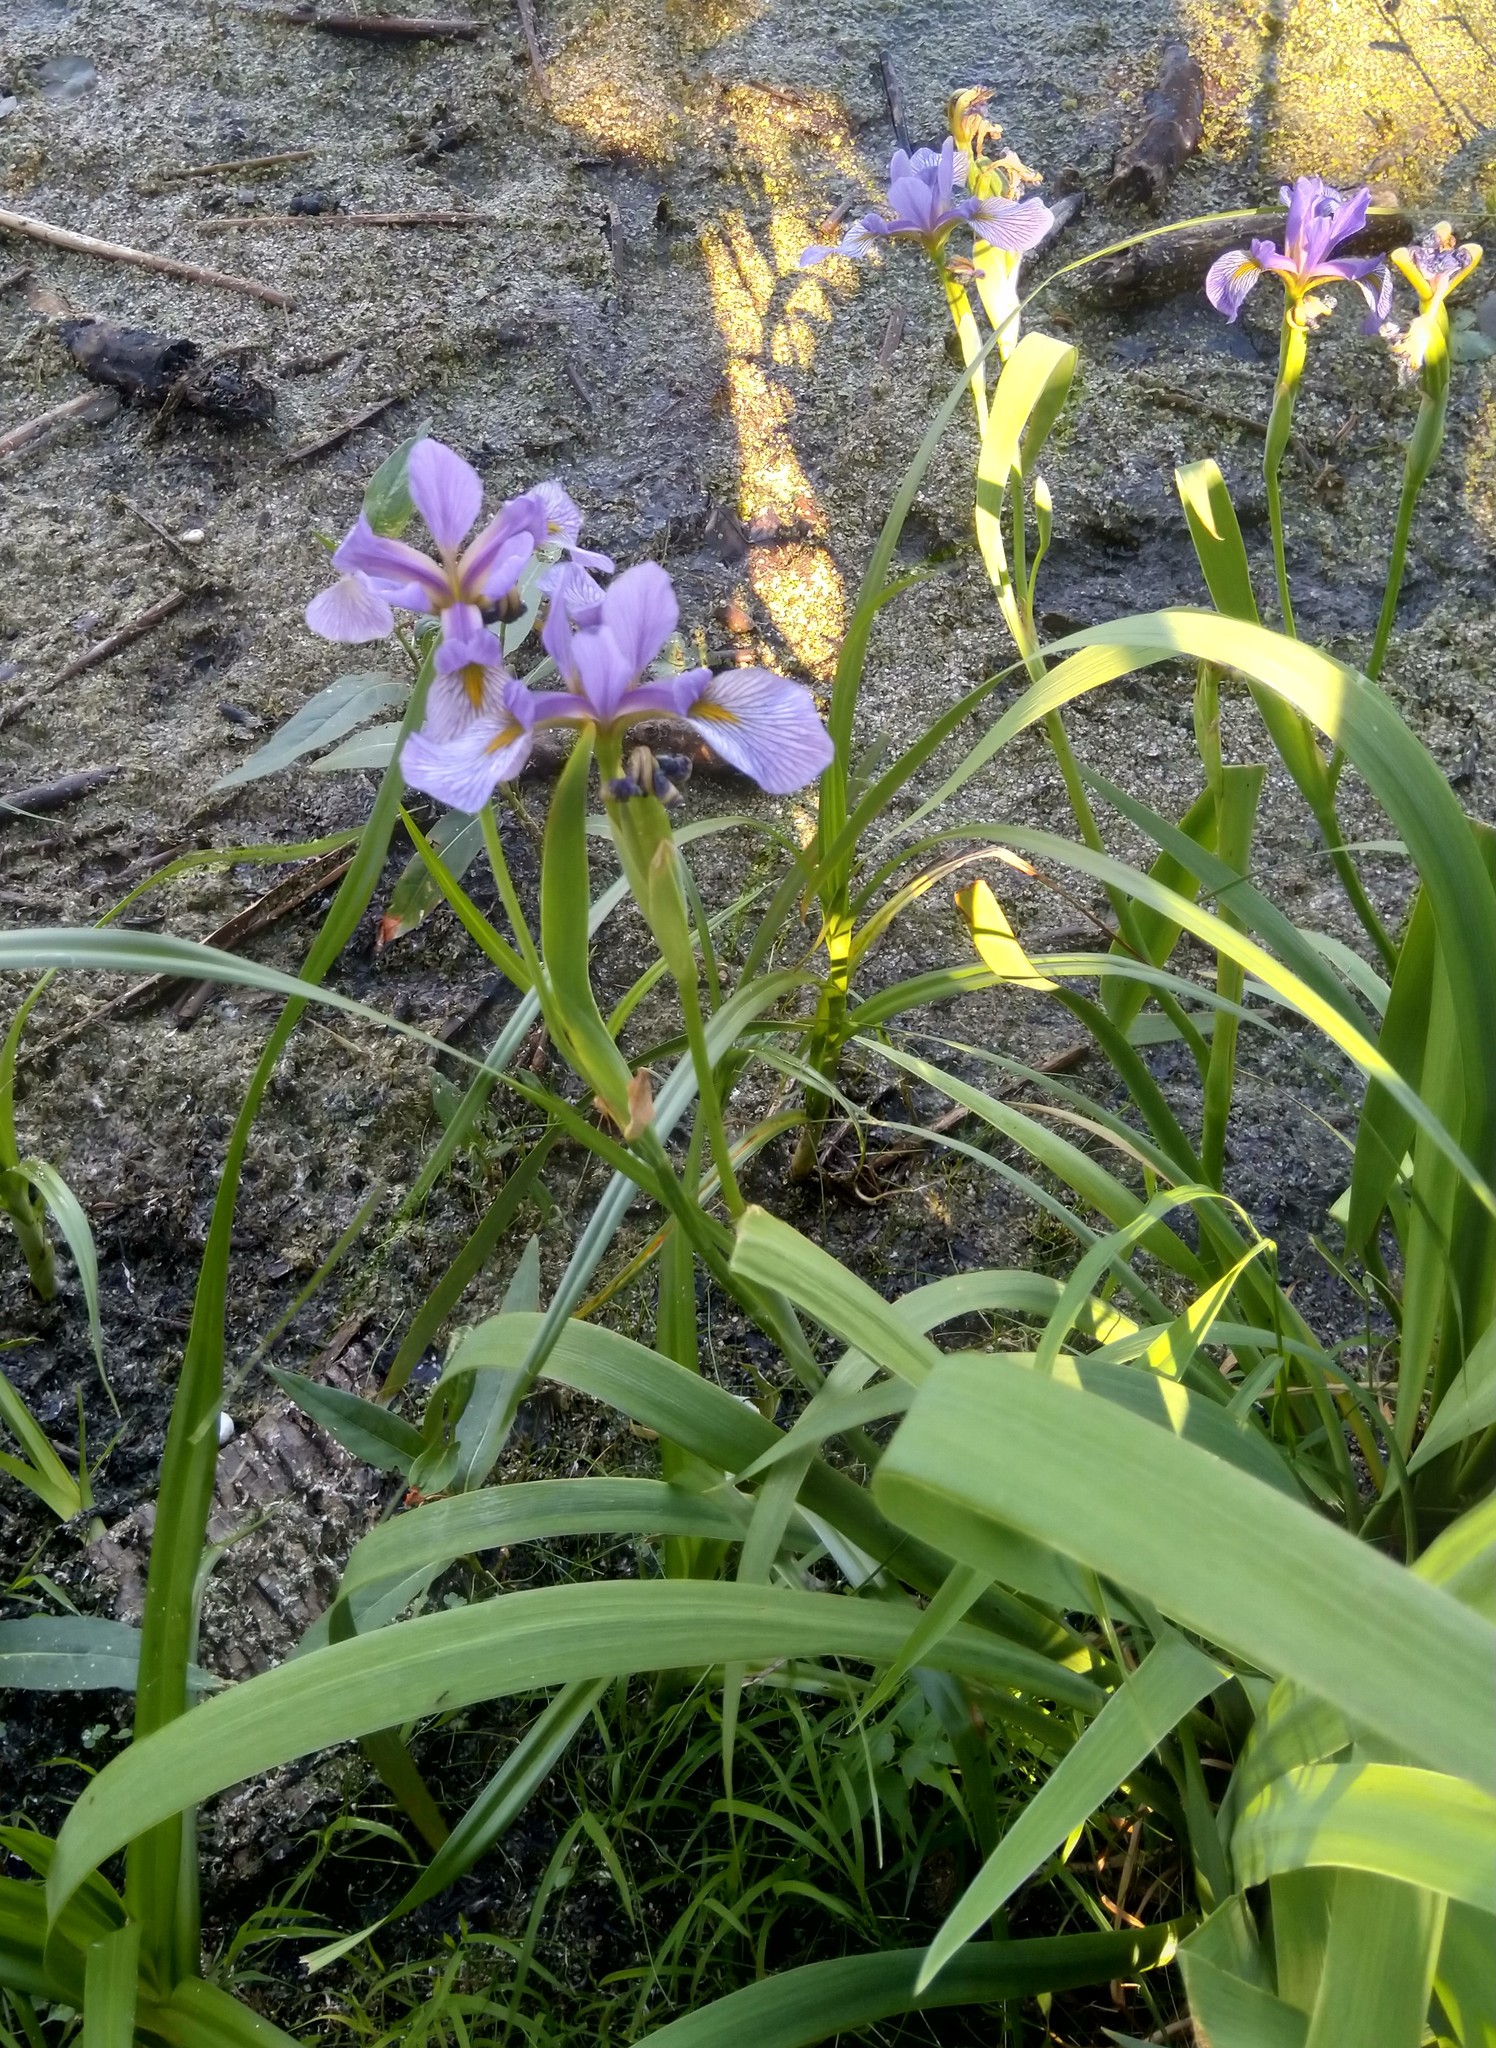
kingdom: Plantae
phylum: Tracheophyta
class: Liliopsida
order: Asparagales
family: Iridaceae
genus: Iris
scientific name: Iris virginica
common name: Southern blue flag
